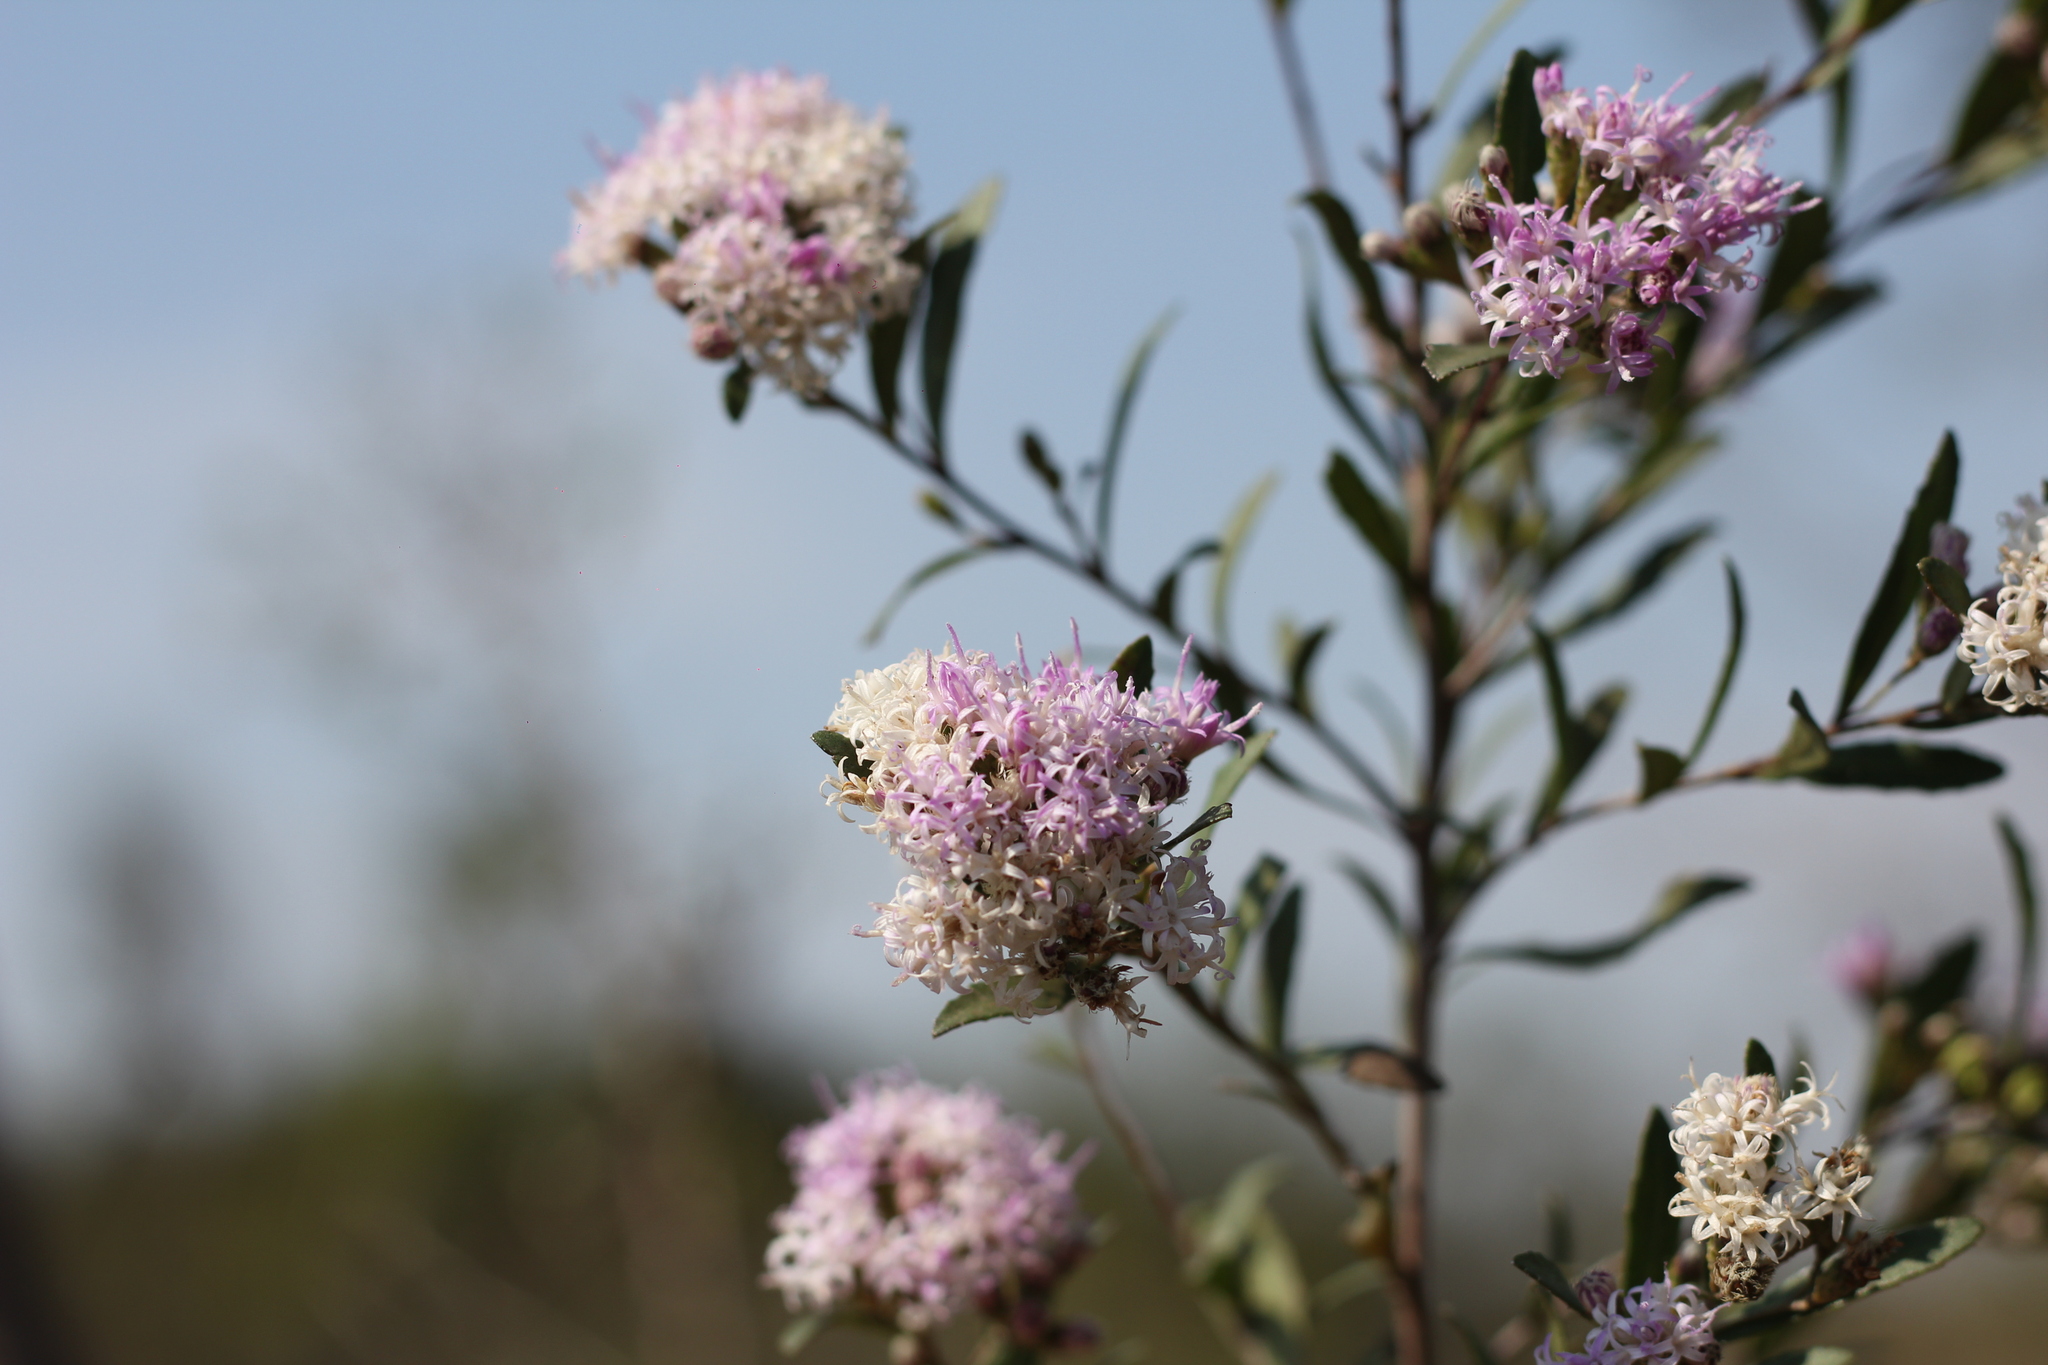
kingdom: Plantae
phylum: Tracheophyta
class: Magnoliopsida
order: Asterales
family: Asteraceae
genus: Vernonanthura
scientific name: Vernonanthura montevidensis
